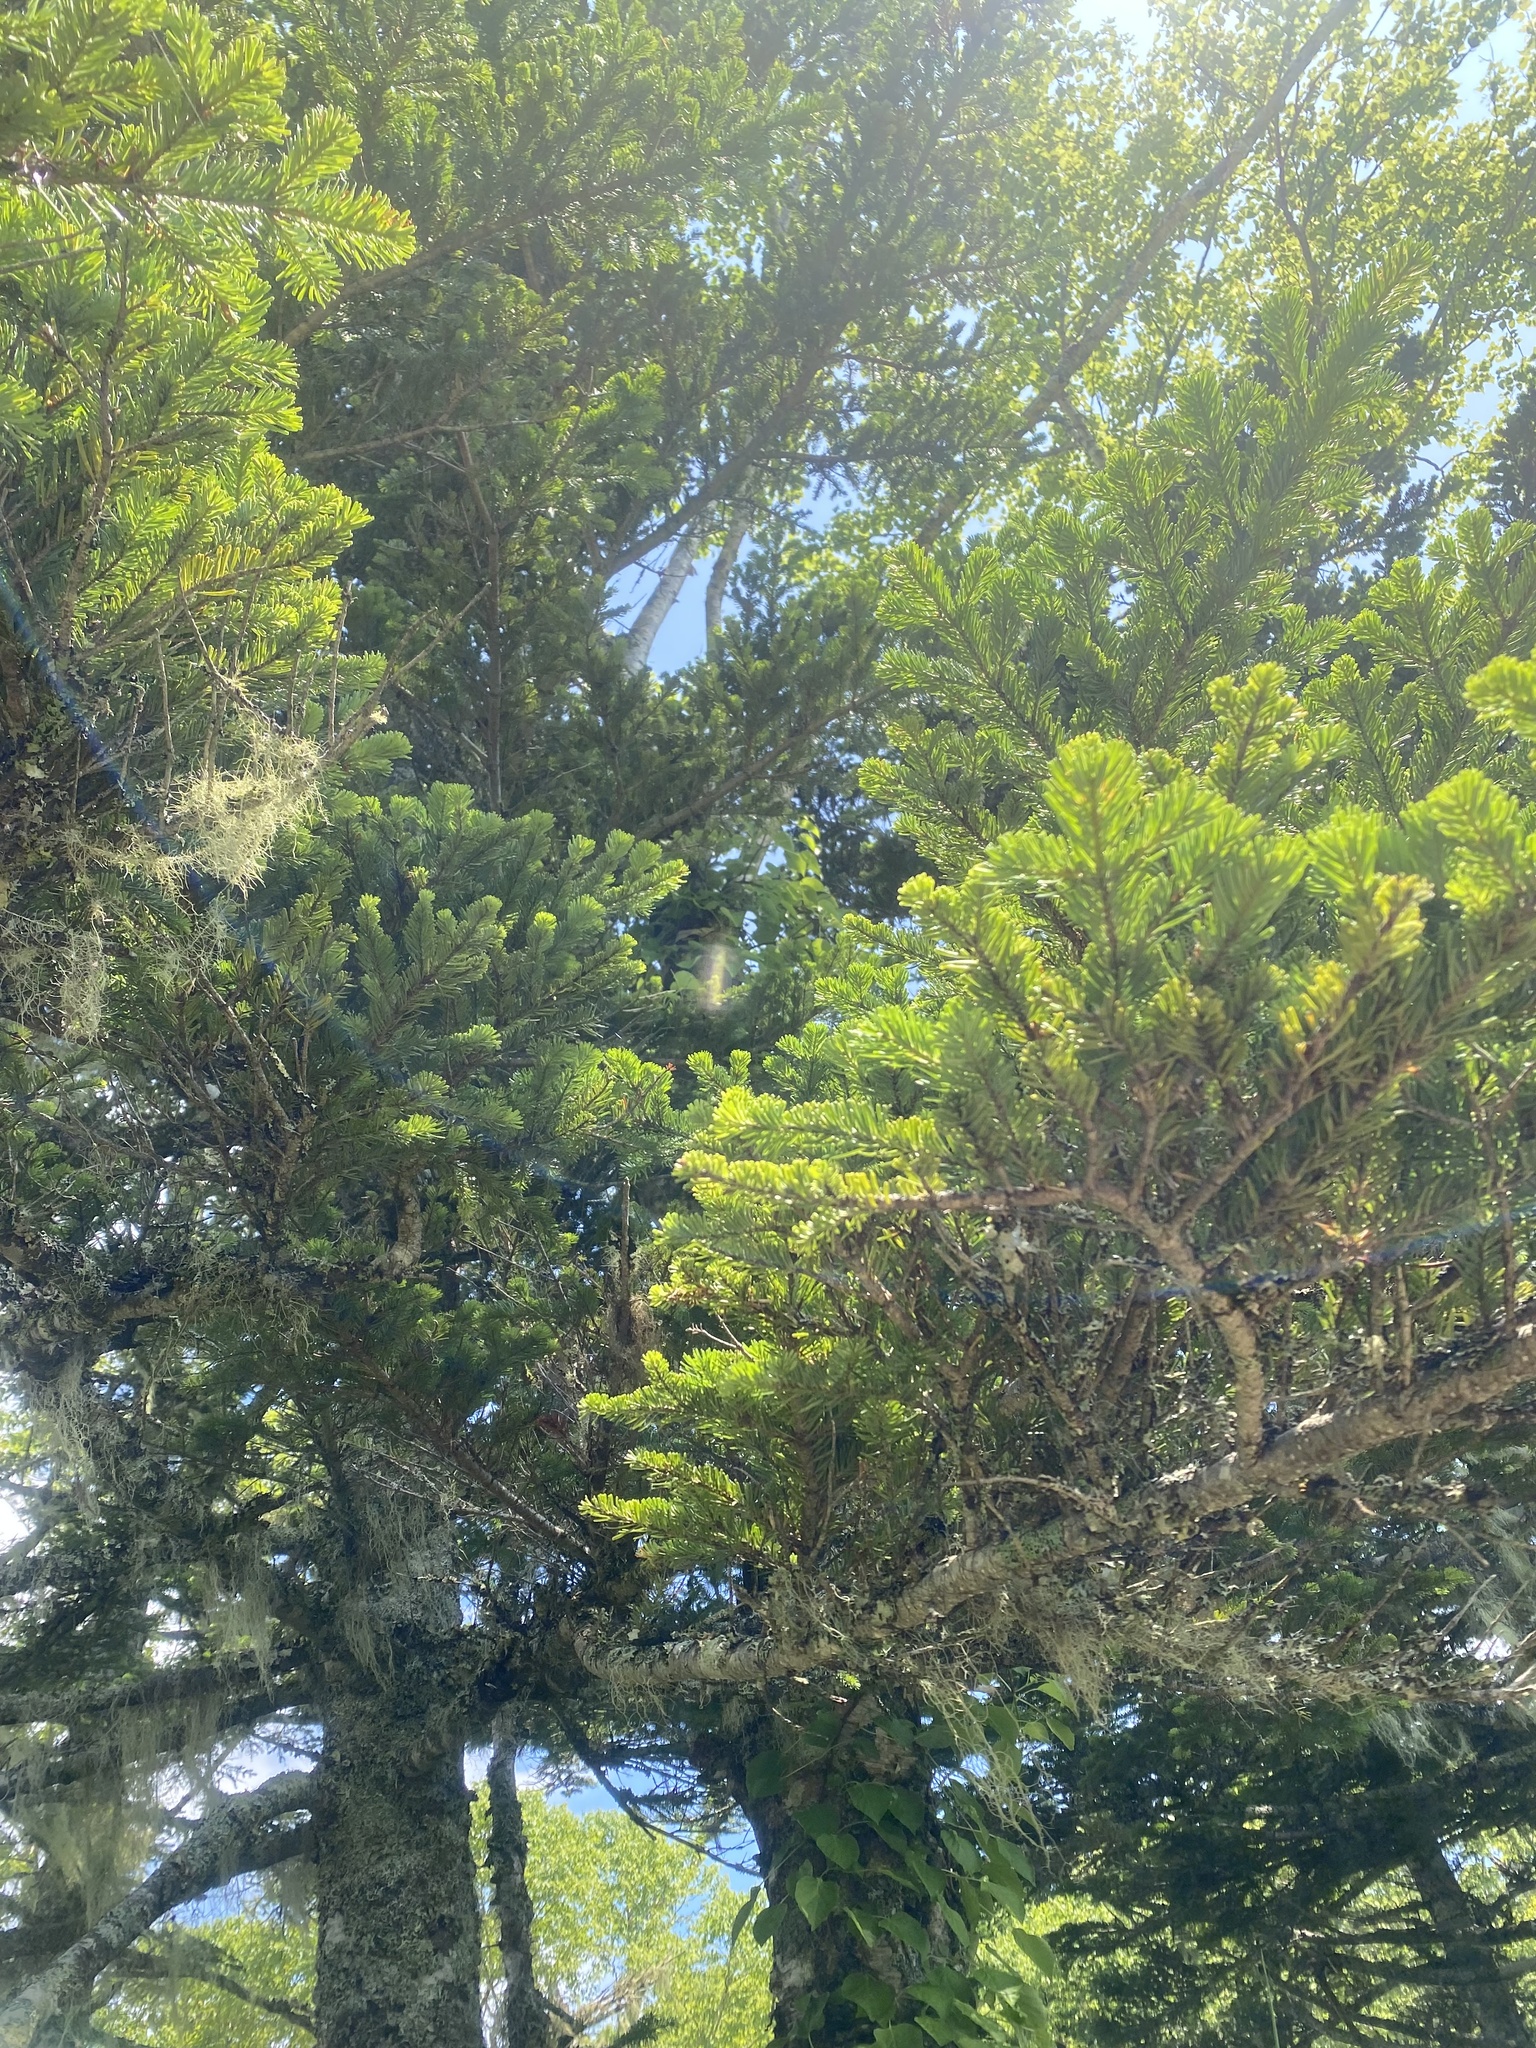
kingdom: Plantae
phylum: Tracheophyta
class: Pinopsida
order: Pinales
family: Pinaceae
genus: Abies
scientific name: Abies sachalinensis
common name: Sakhalin fir
